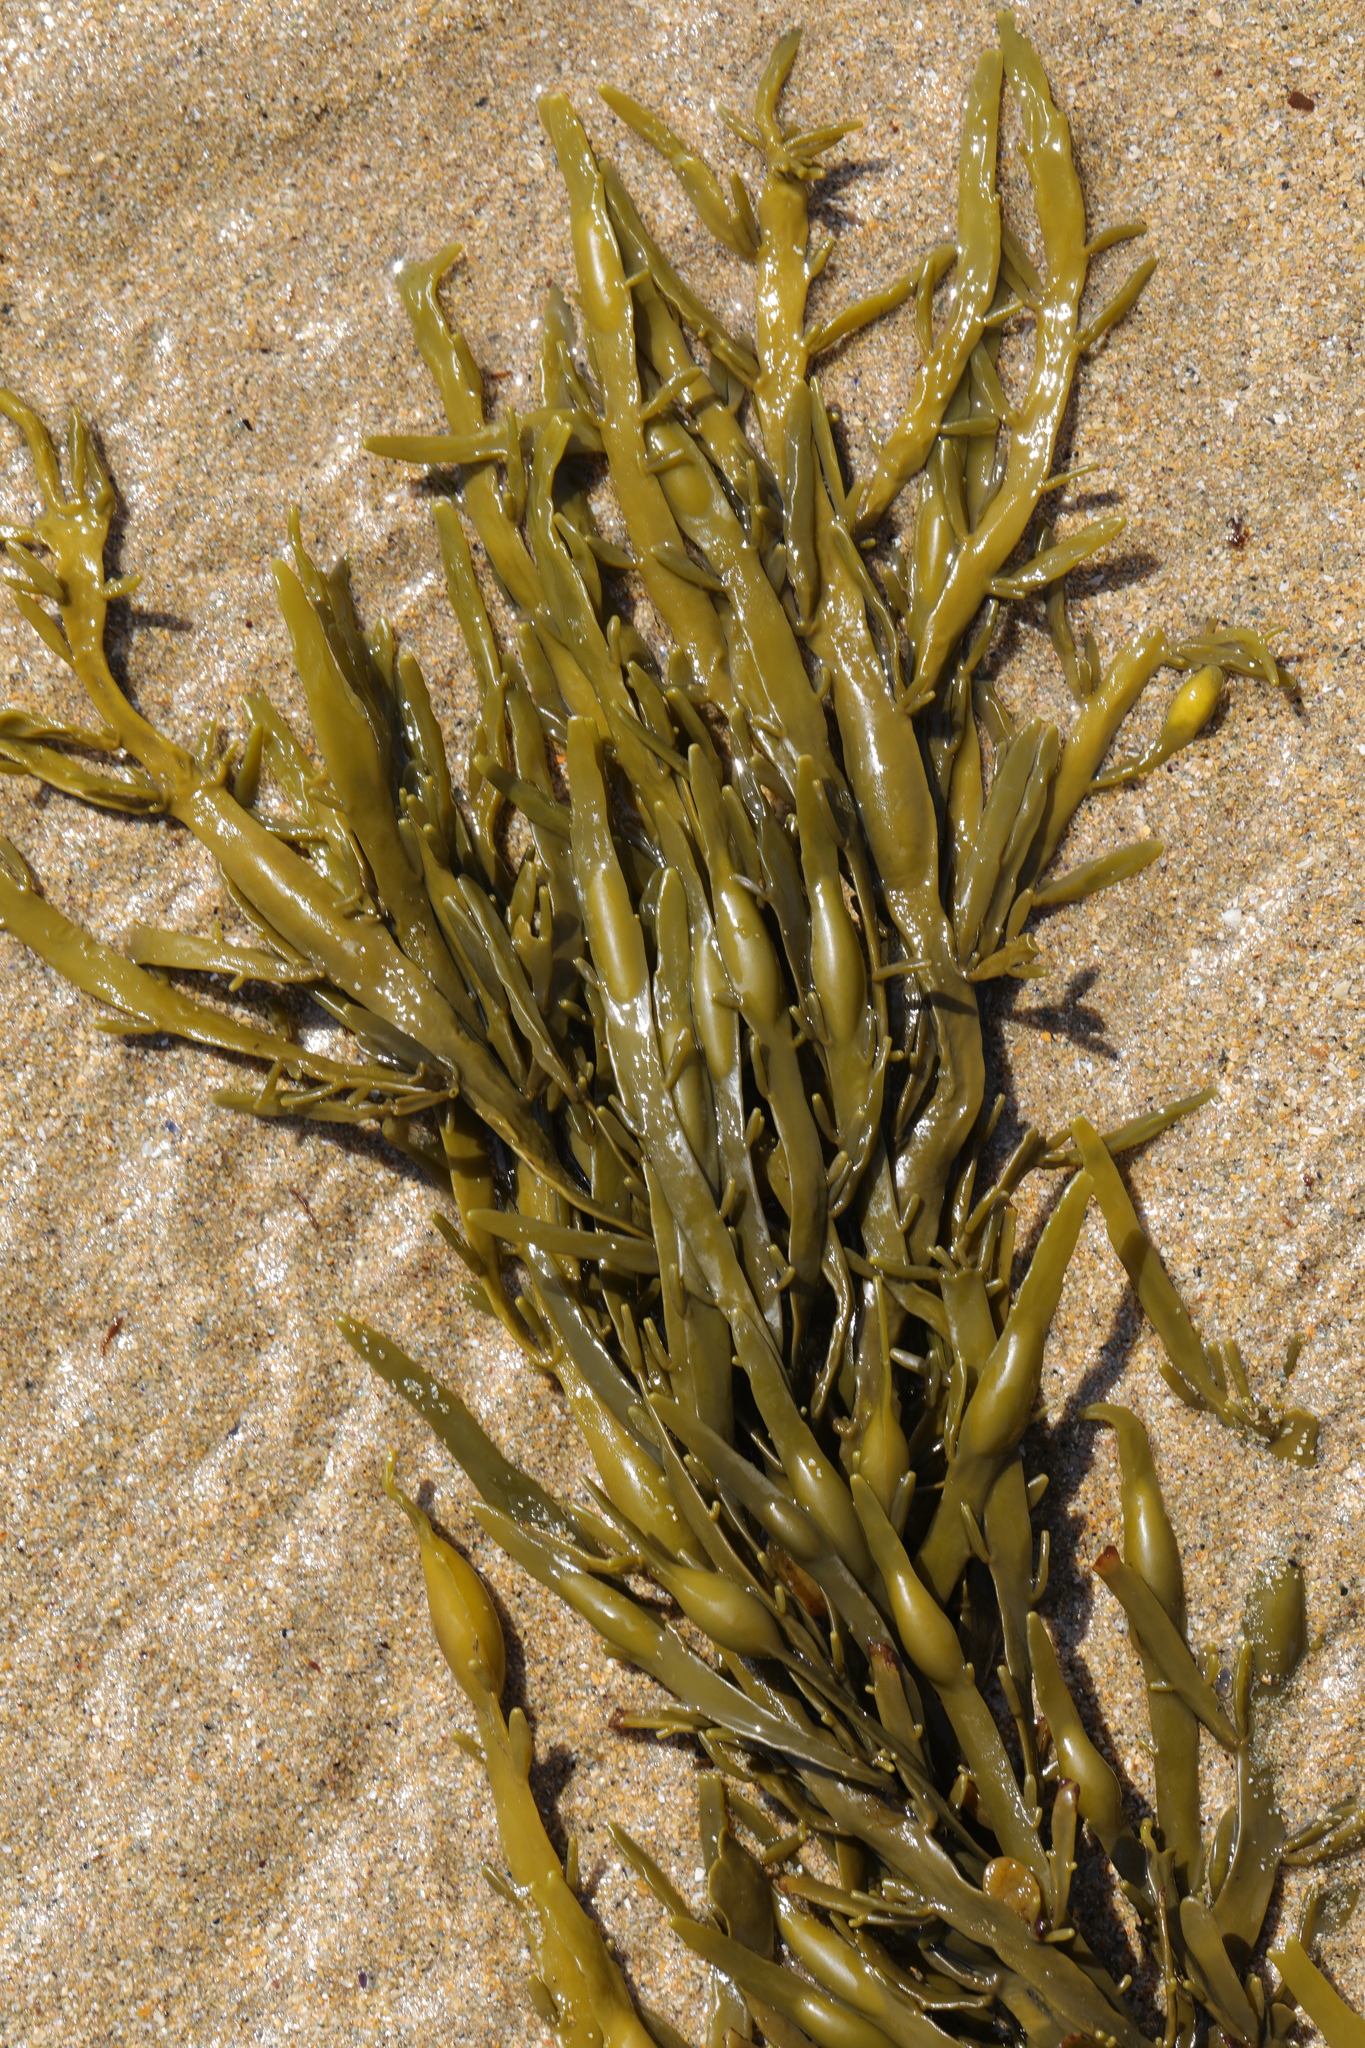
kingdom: Chromista
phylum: Ochrophyta
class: Phaeophyceae
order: Fucales
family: Fucaceae
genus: Ascophyllum
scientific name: Ascophyllum nodosum
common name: Knotted wrack
